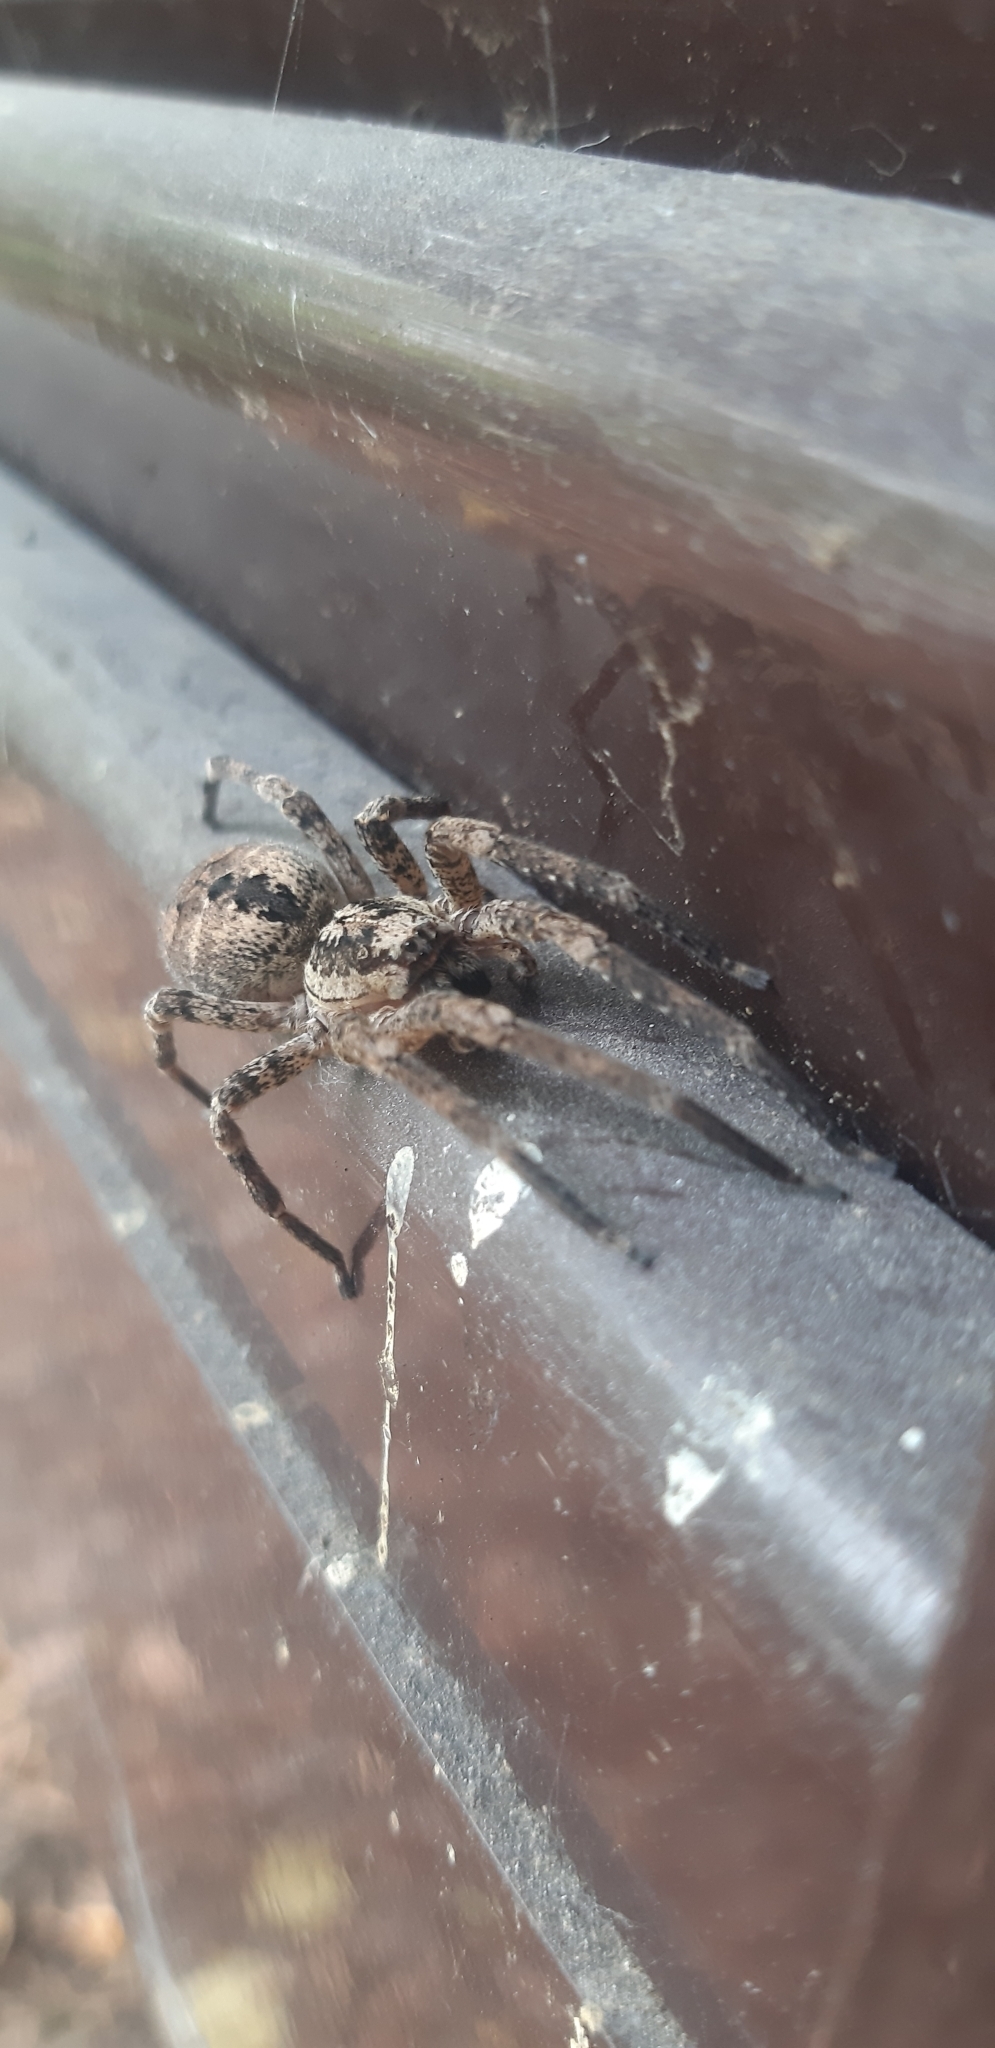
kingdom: Animalia
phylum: Arthropoda
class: Arachnida
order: Araneae
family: Zoropsidae
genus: Zoropsis
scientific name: Zoropsis spinimana
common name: Zoropsid spider
